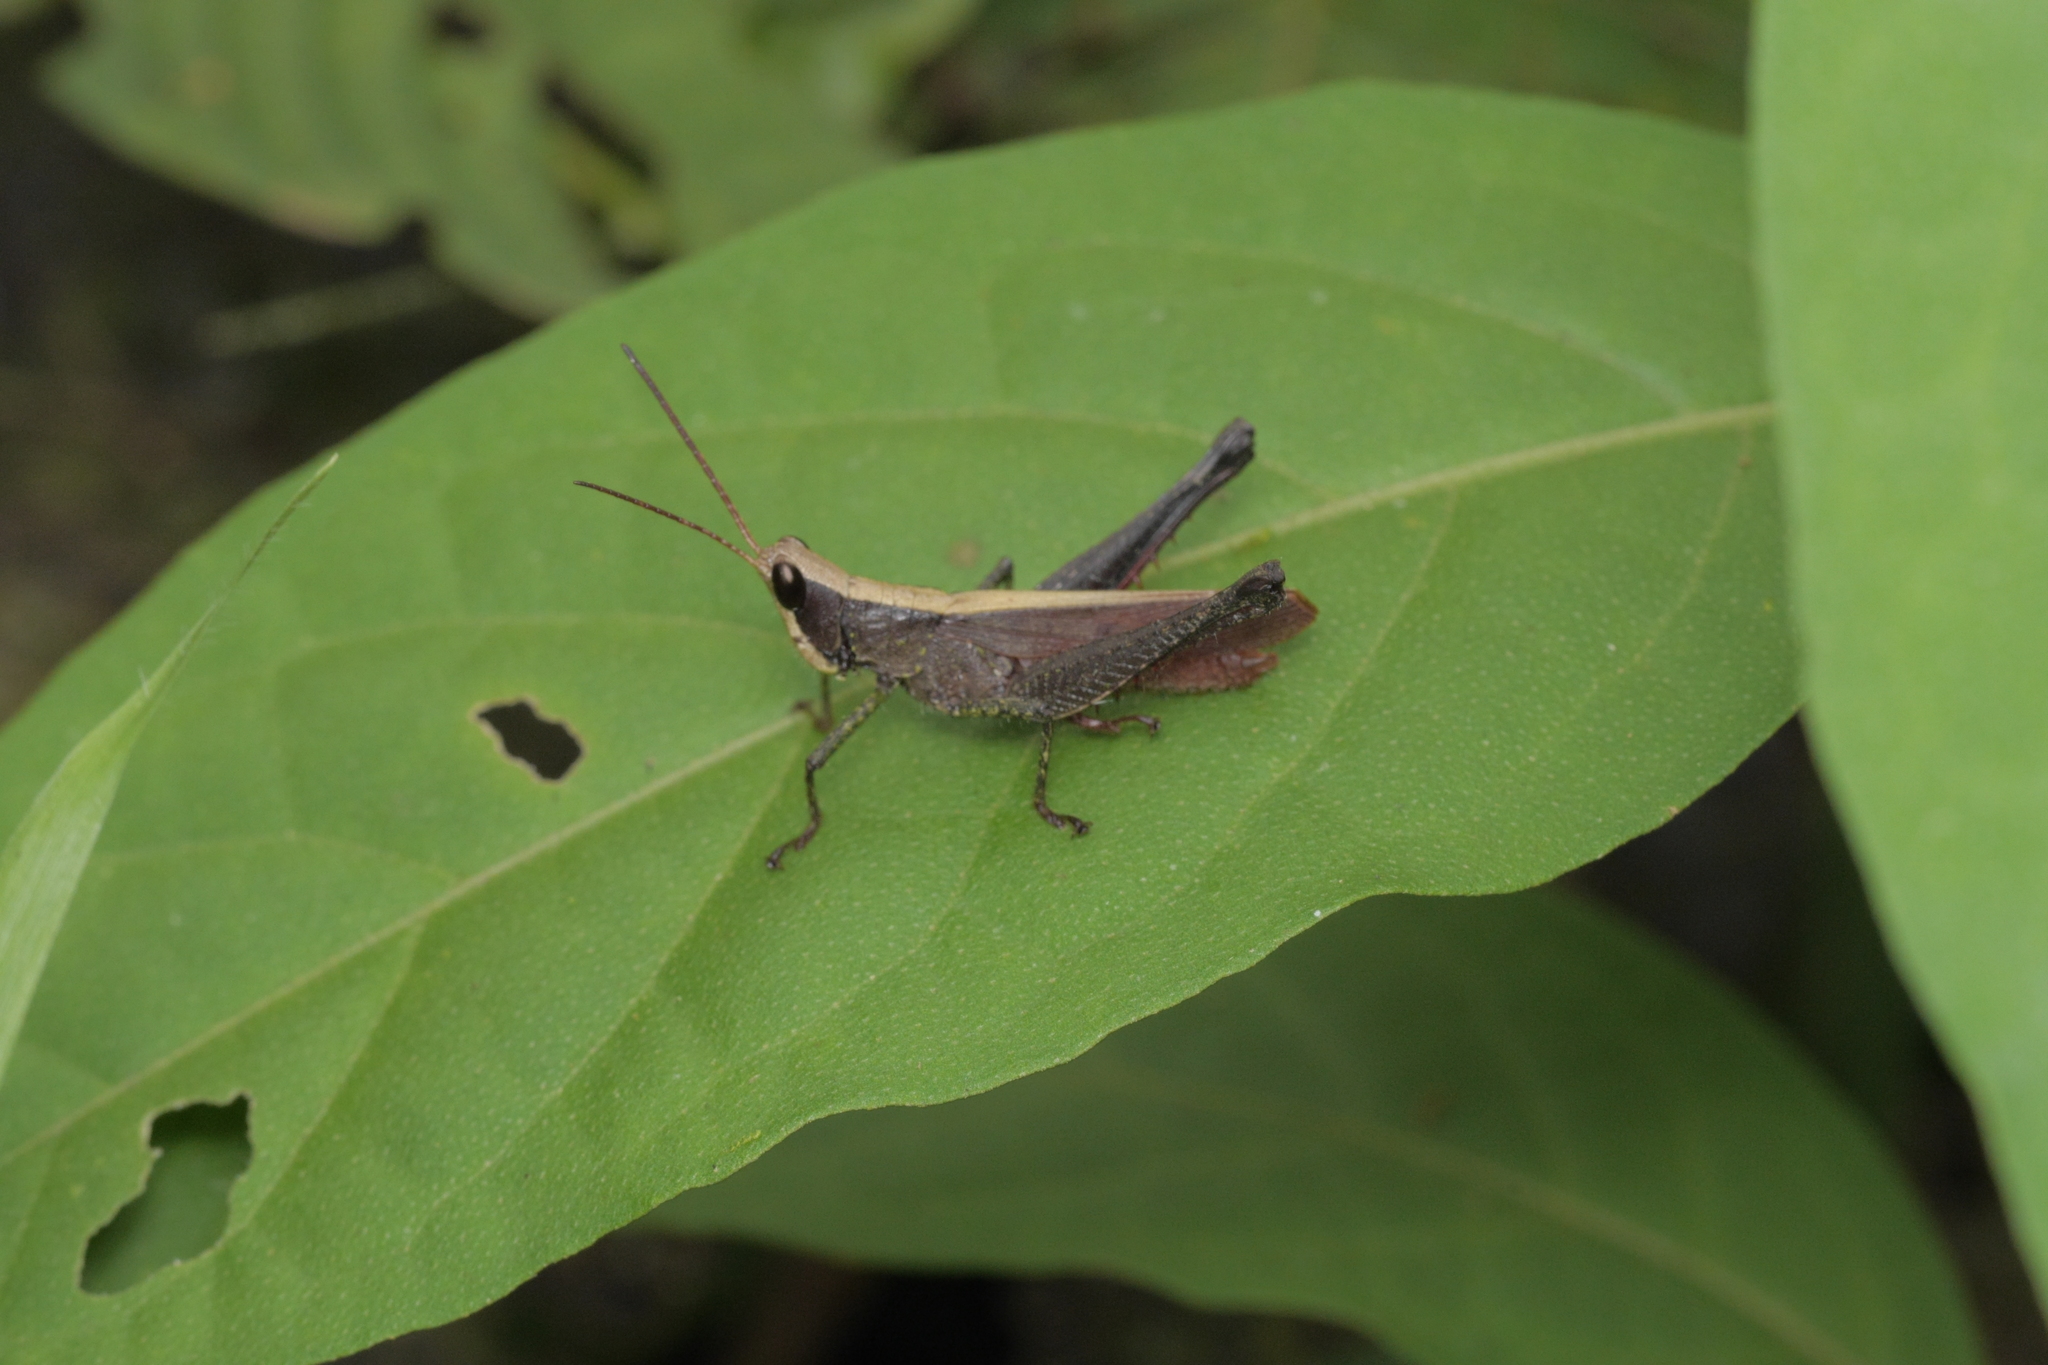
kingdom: Animalia
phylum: Arthropoda
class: Insecta
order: Orthoptera
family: Romaleidae
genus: Maculiparia
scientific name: Maculiparia rotundata
